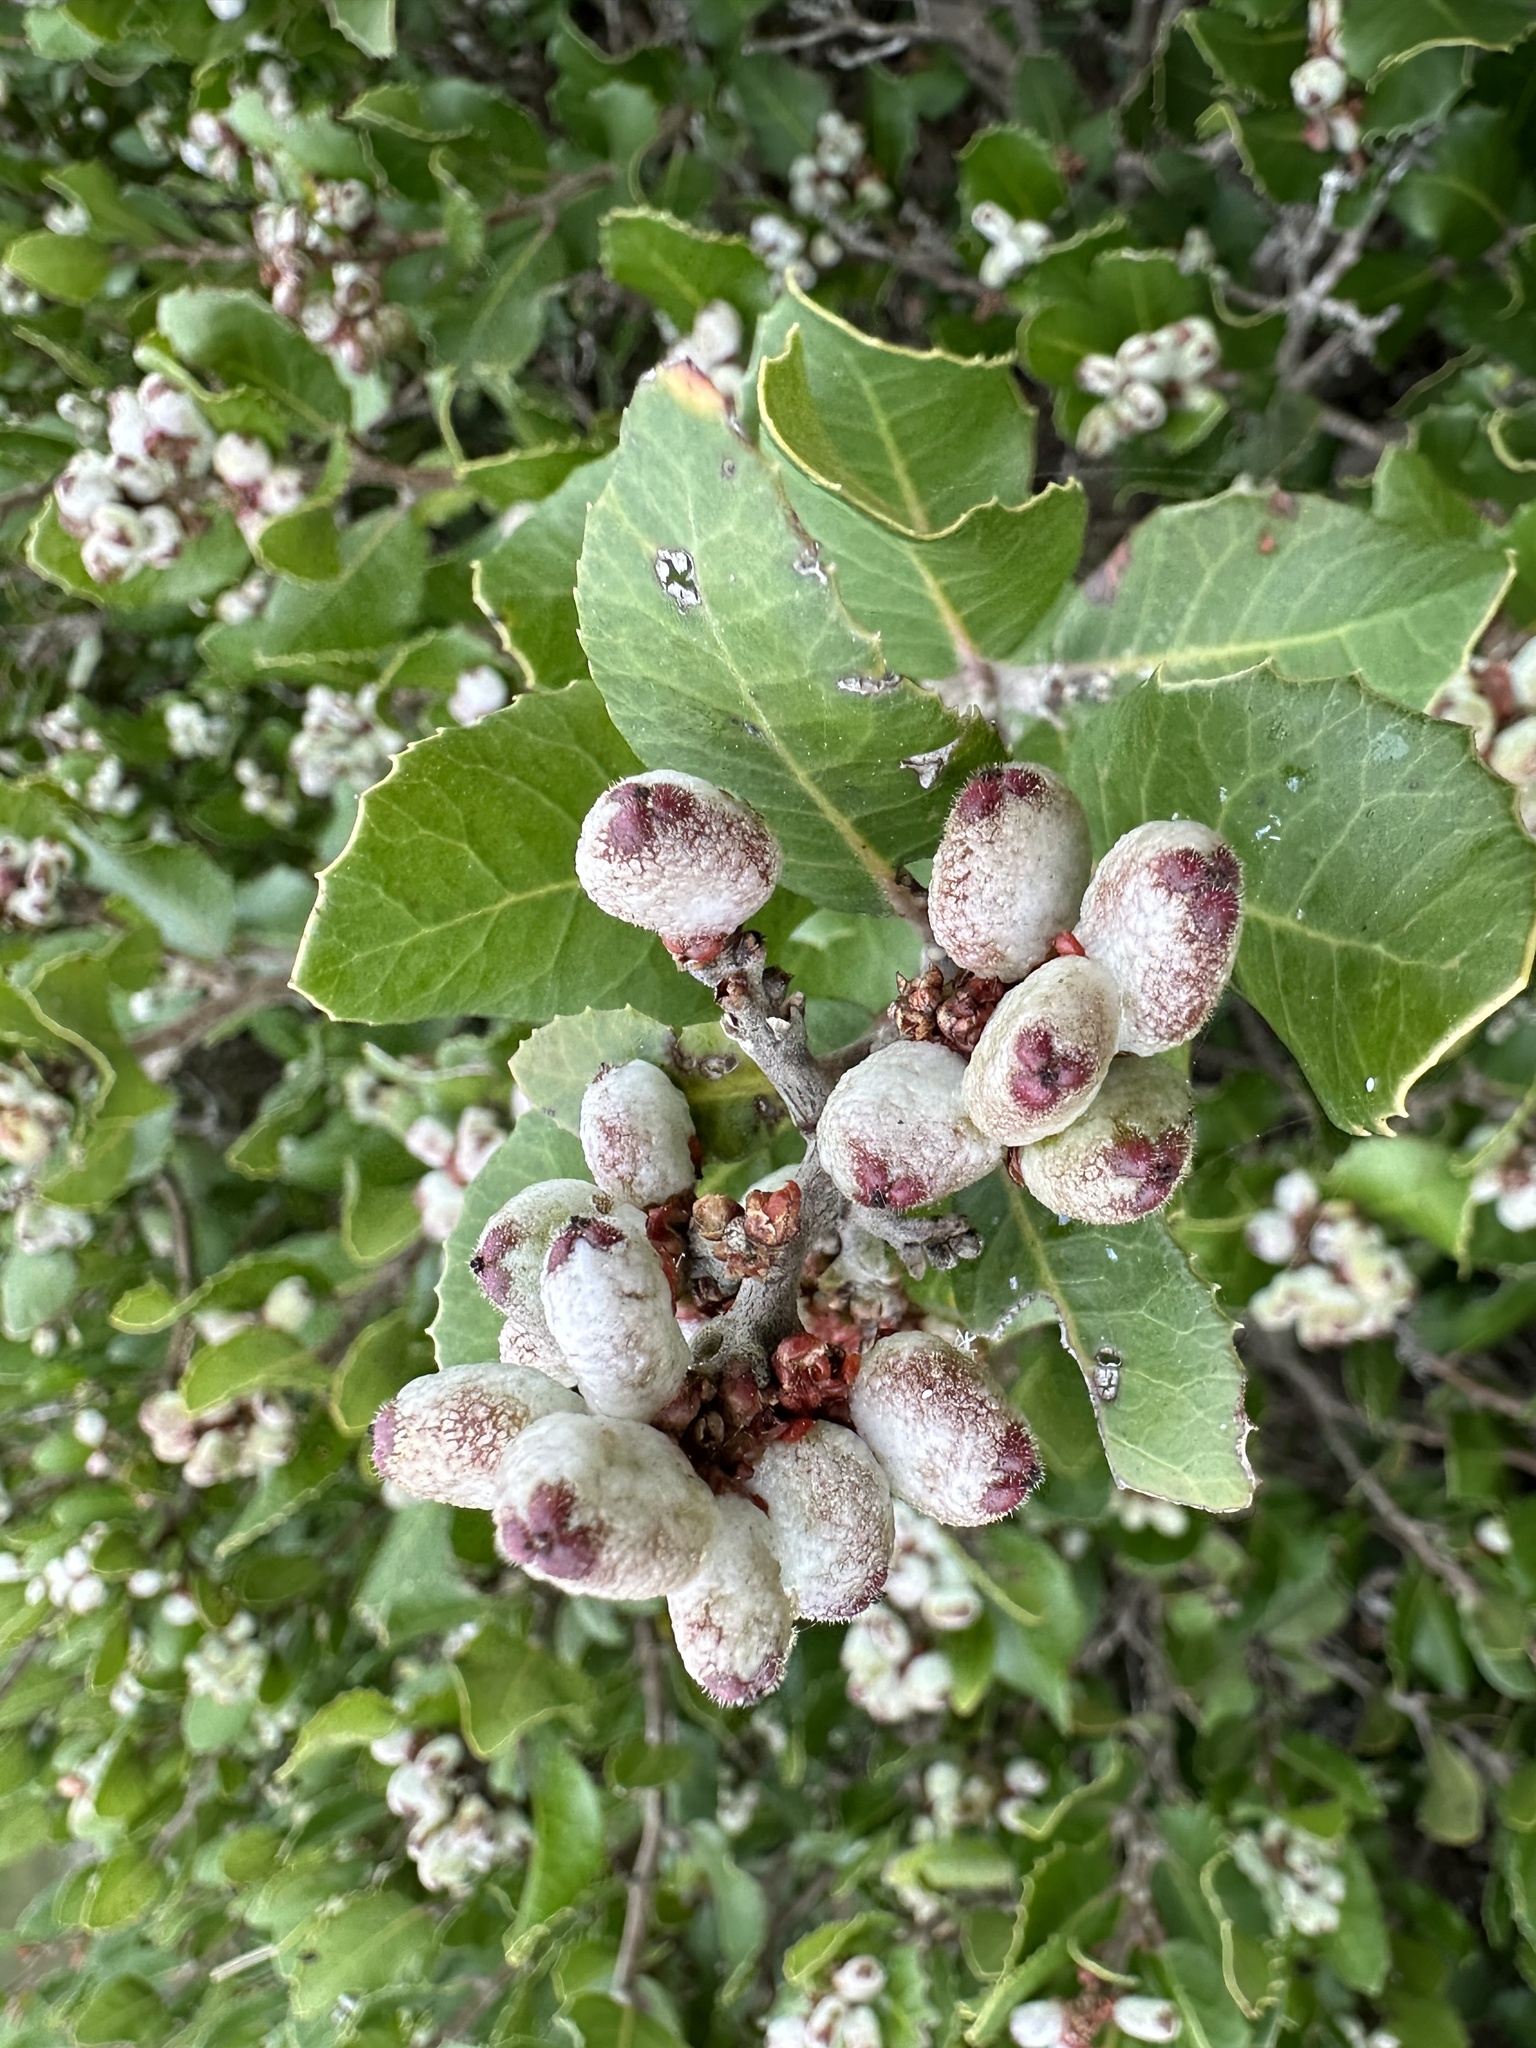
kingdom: Plantae
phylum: Tracheophyta
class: Magnoliopsida
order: Sapindales
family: Anacardiaceae
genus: Rhus
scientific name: Rhus integrifolia
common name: Lemonade sumac
